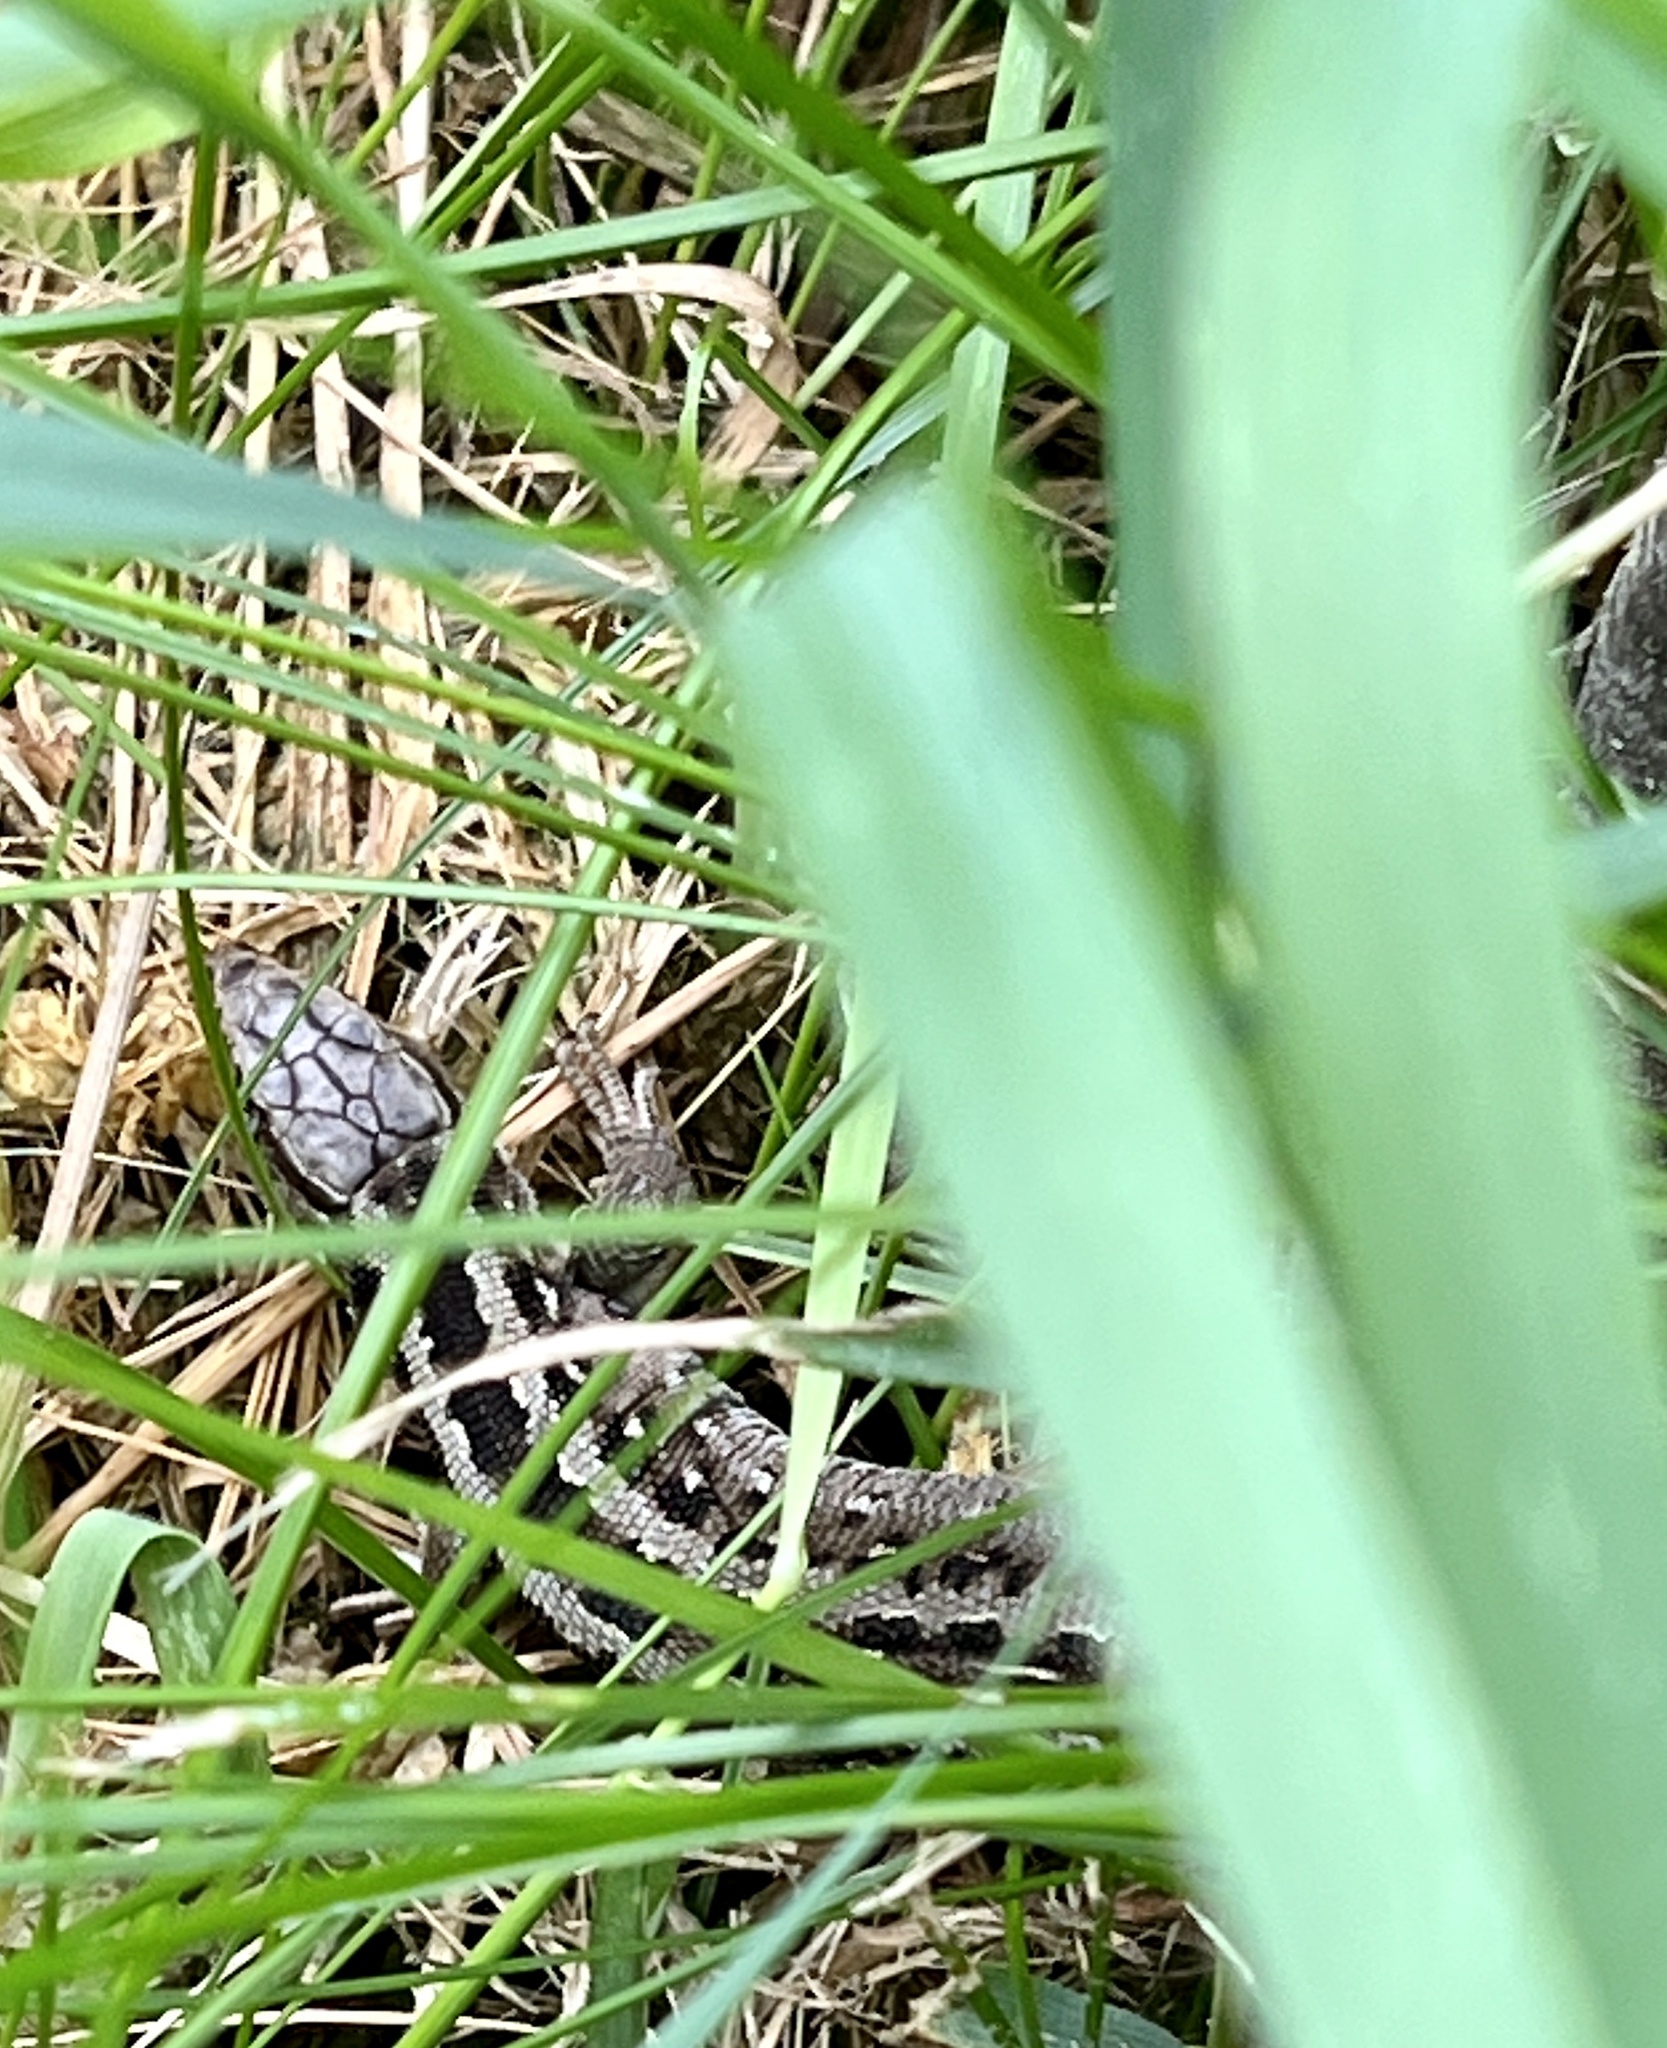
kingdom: Animalia
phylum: Chordata
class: Squamata
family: Lacertidae
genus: Lacerta
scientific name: Lacerta agilis
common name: Sand lizard
